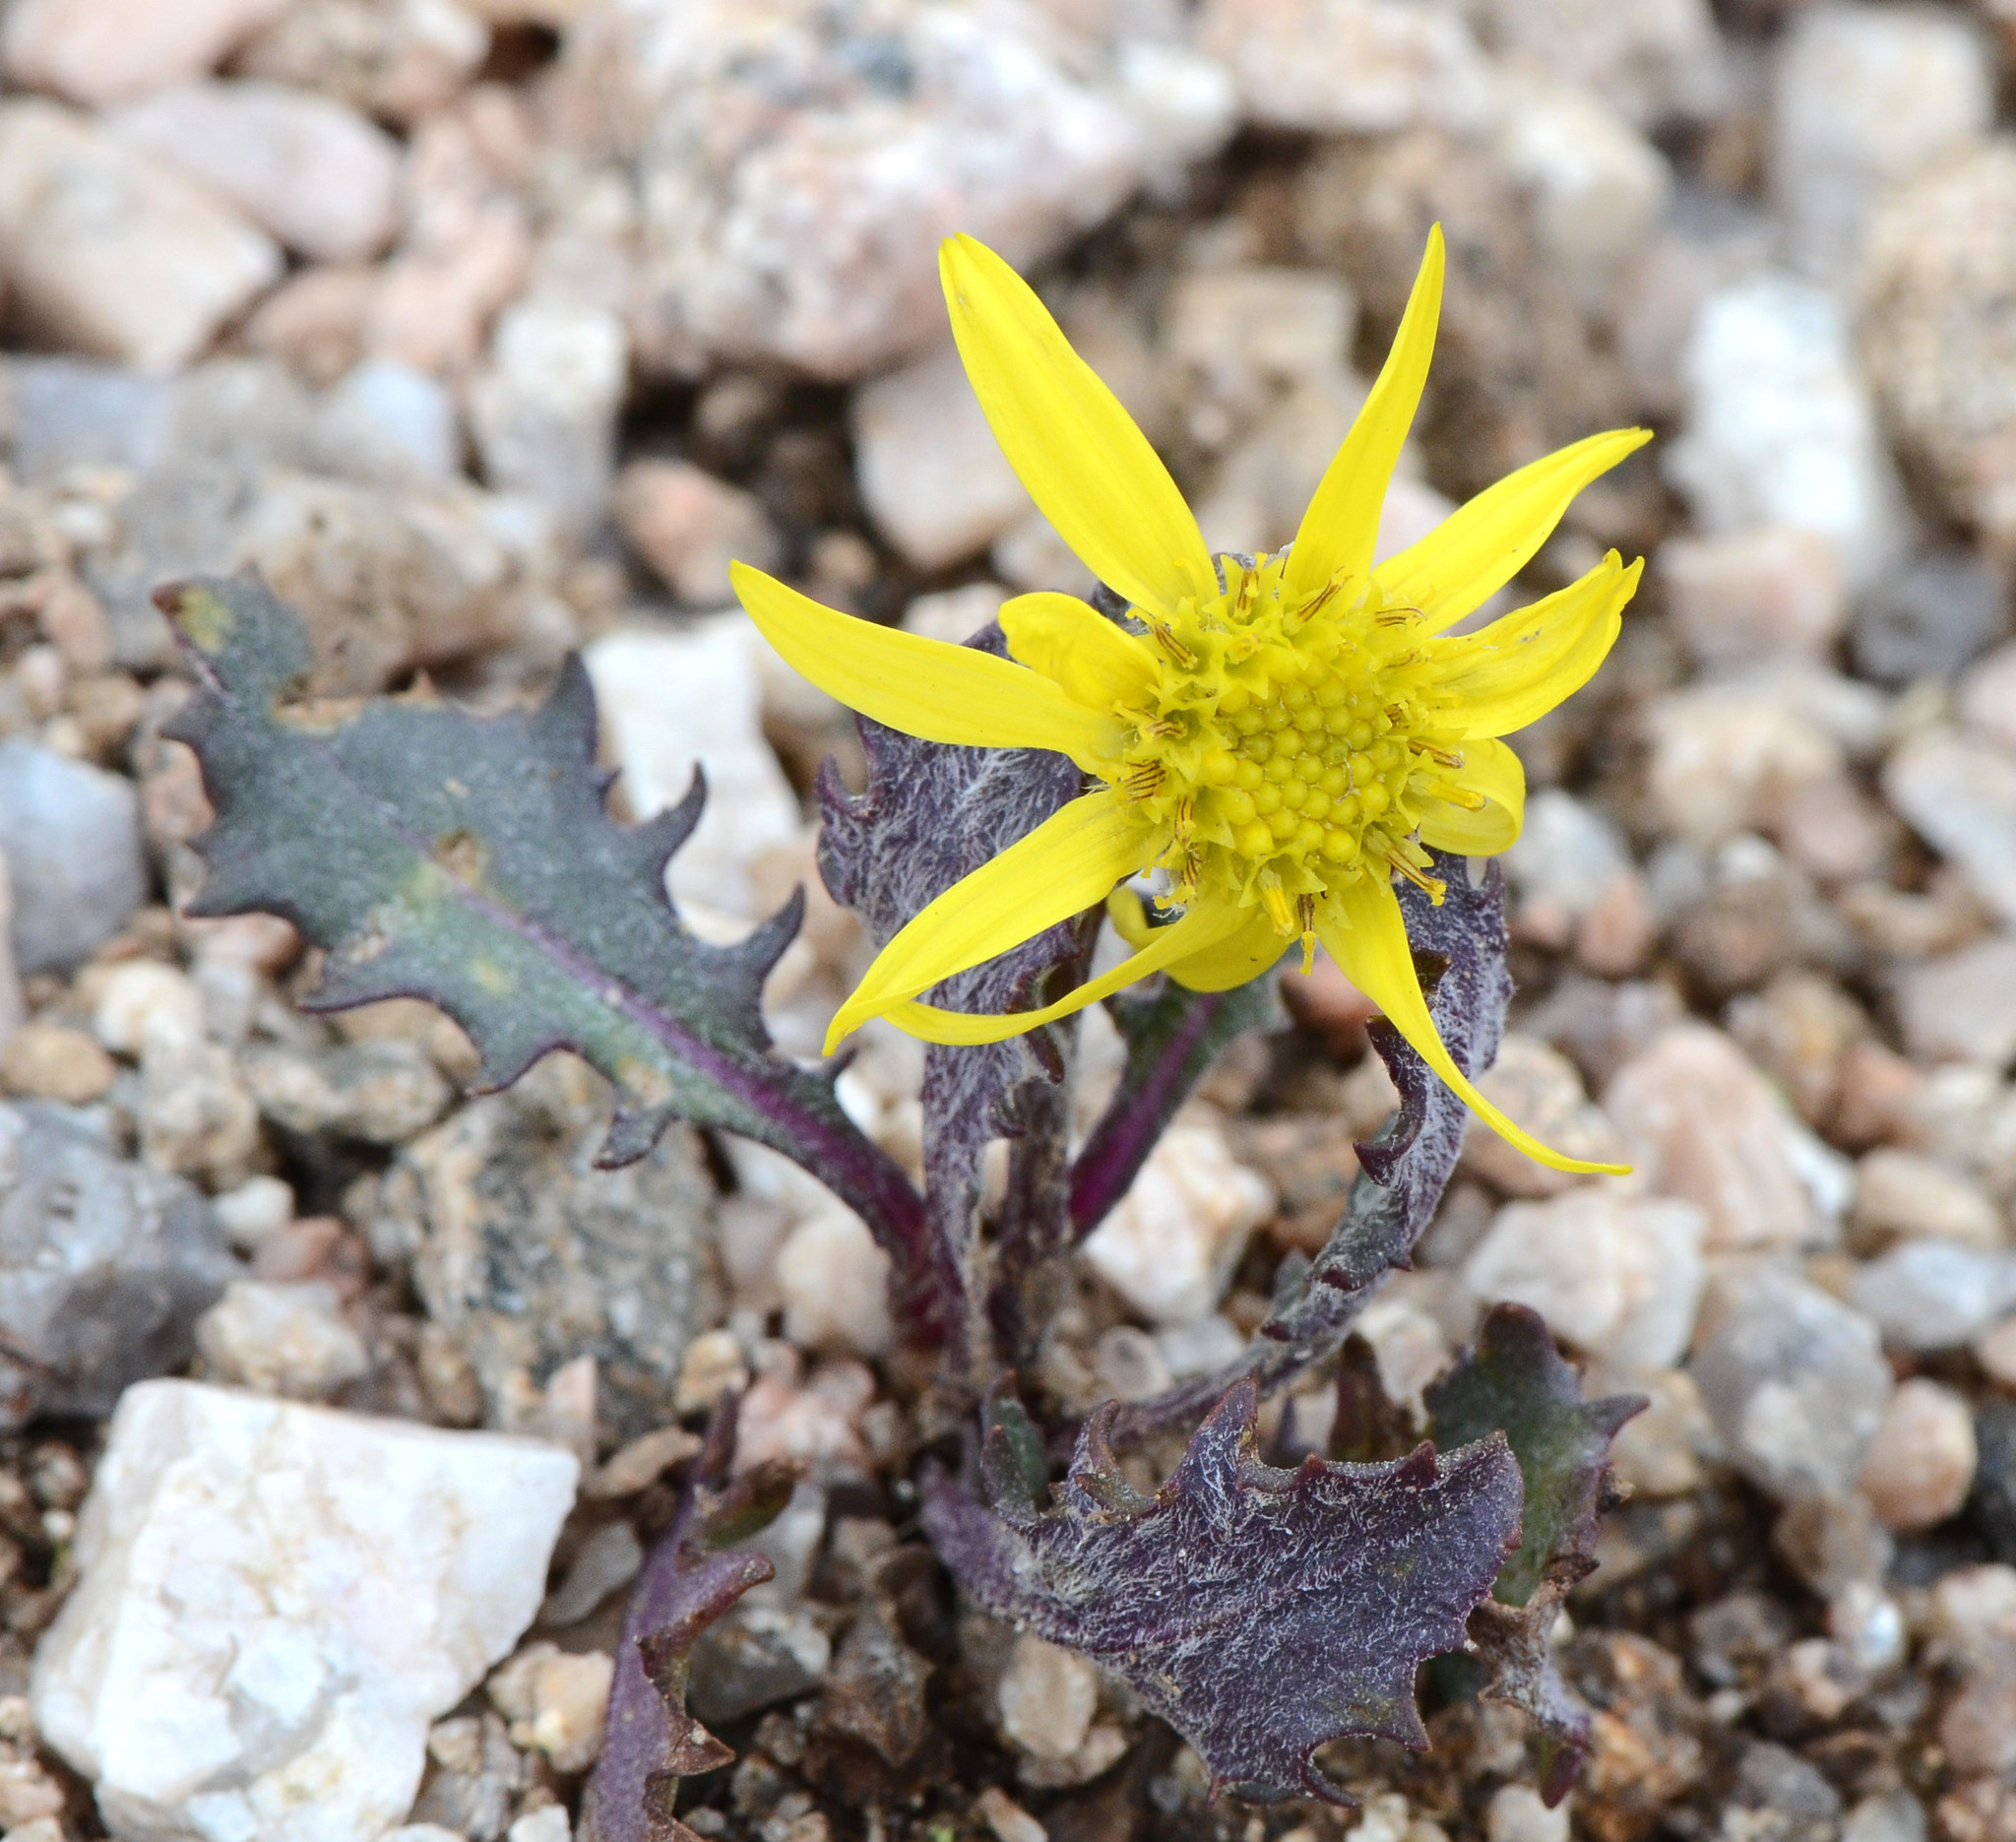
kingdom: Plantae
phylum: Tracheophyta
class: Magnoliopsida
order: Asterales
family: Asteraceae
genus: Senecio
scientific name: Senecio taraxacoides
